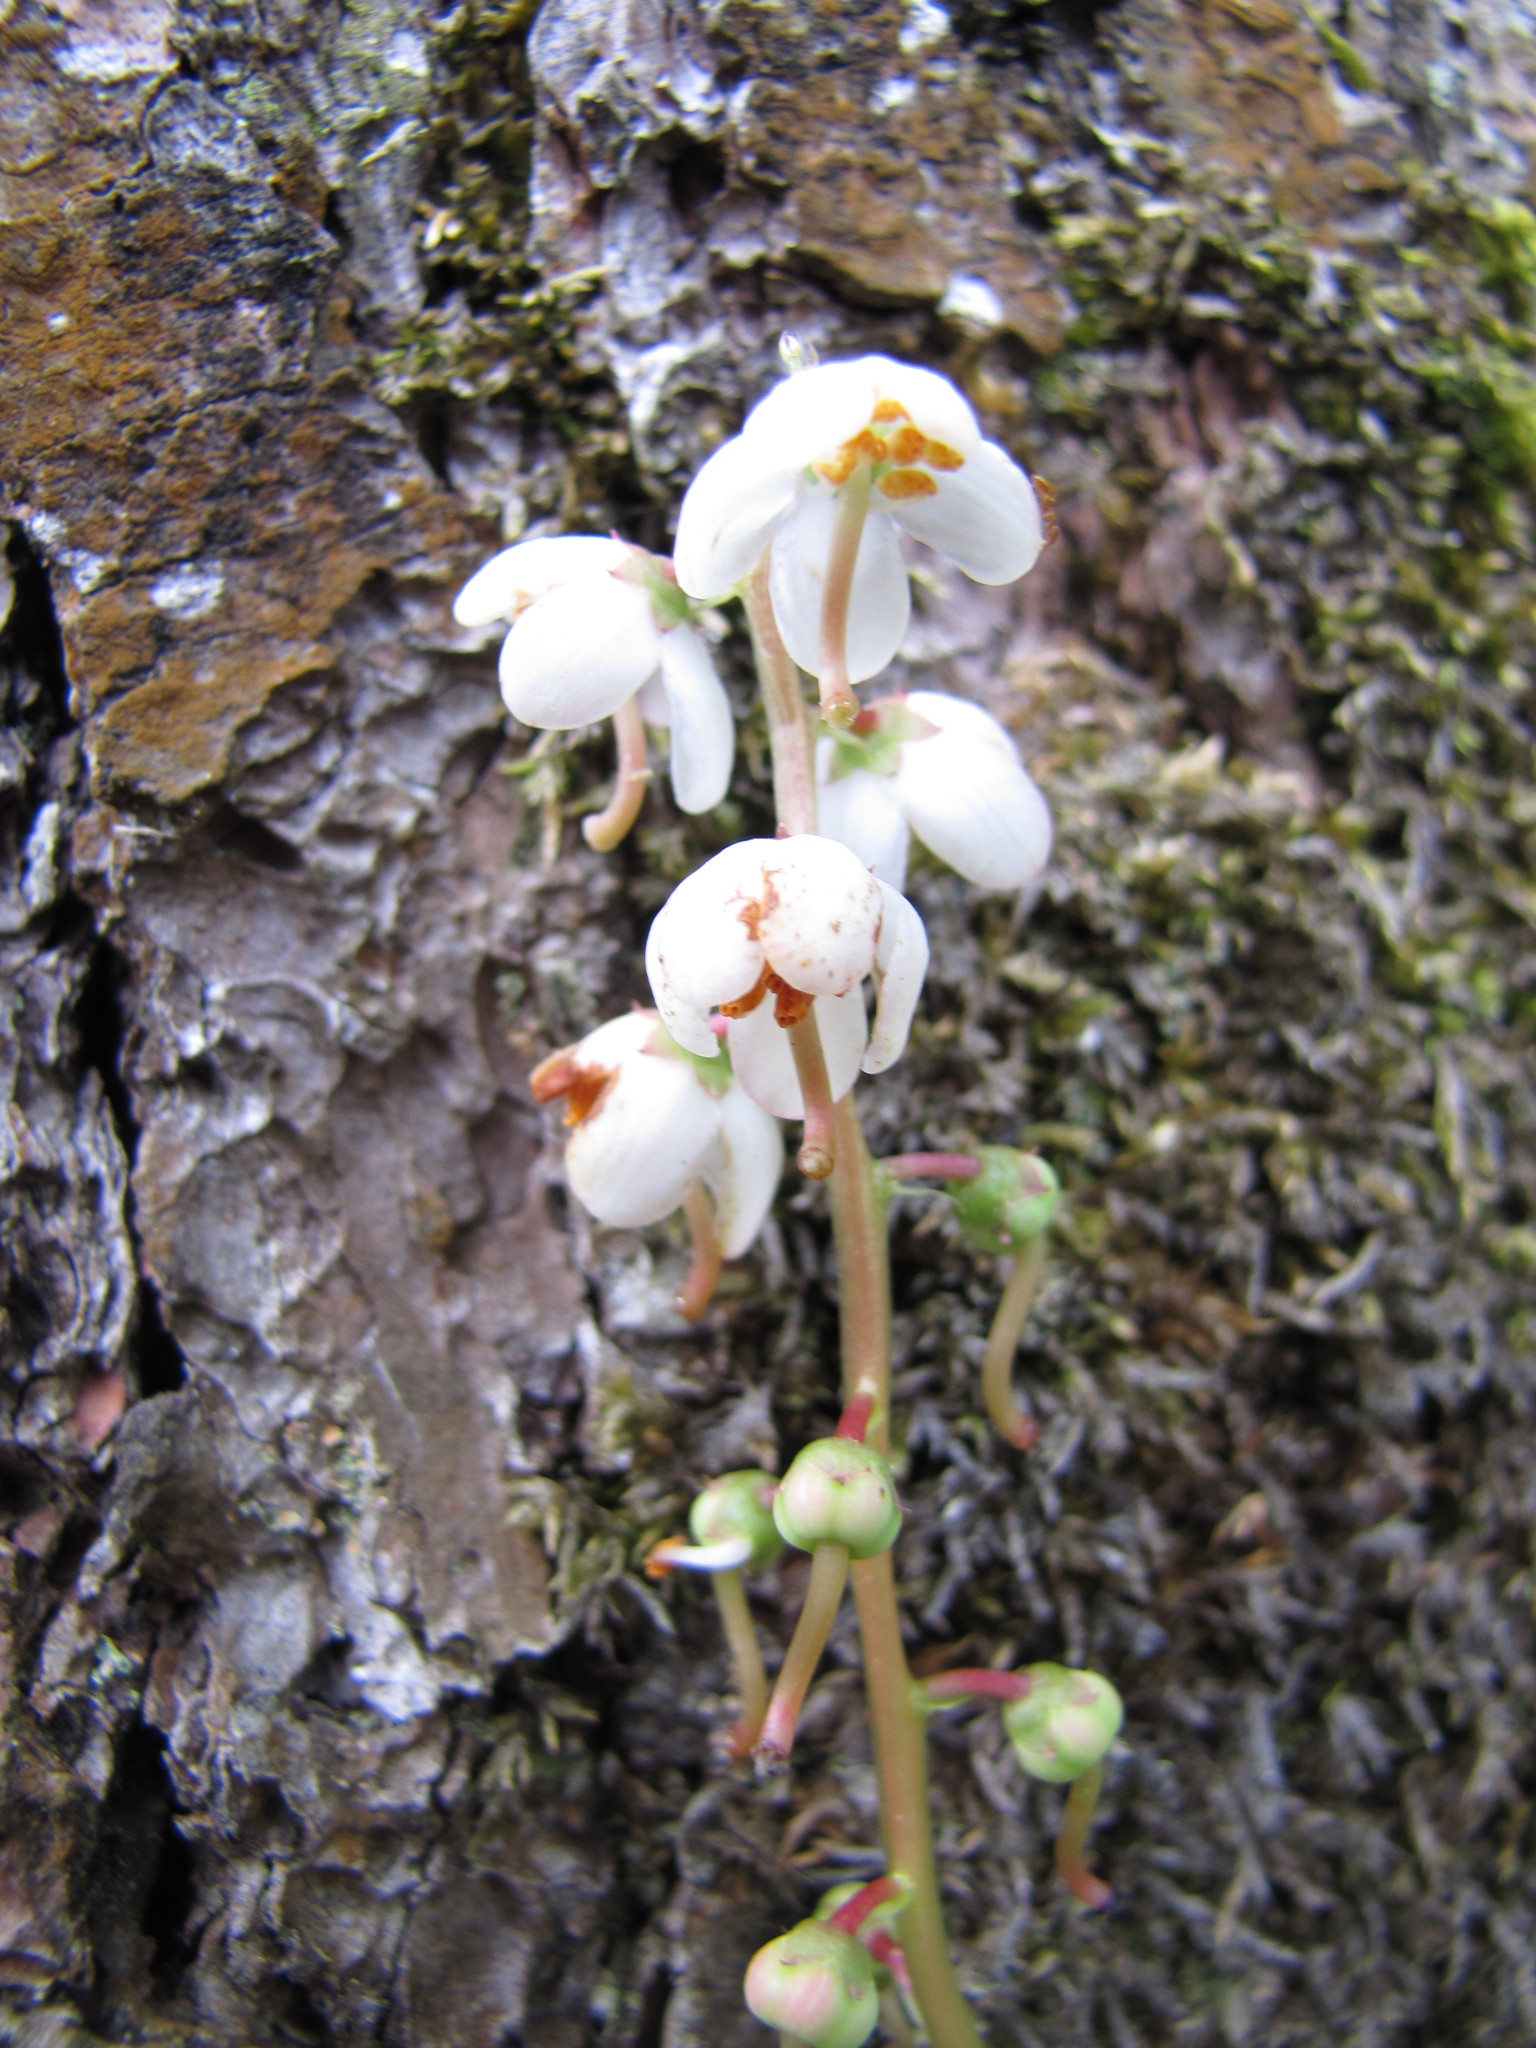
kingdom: Plantae
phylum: Tracheophyta
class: Magnoliopsida
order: Ericales
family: Ericaceae
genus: Pyrola
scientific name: Pyrola elliptica
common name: Shinleaf
